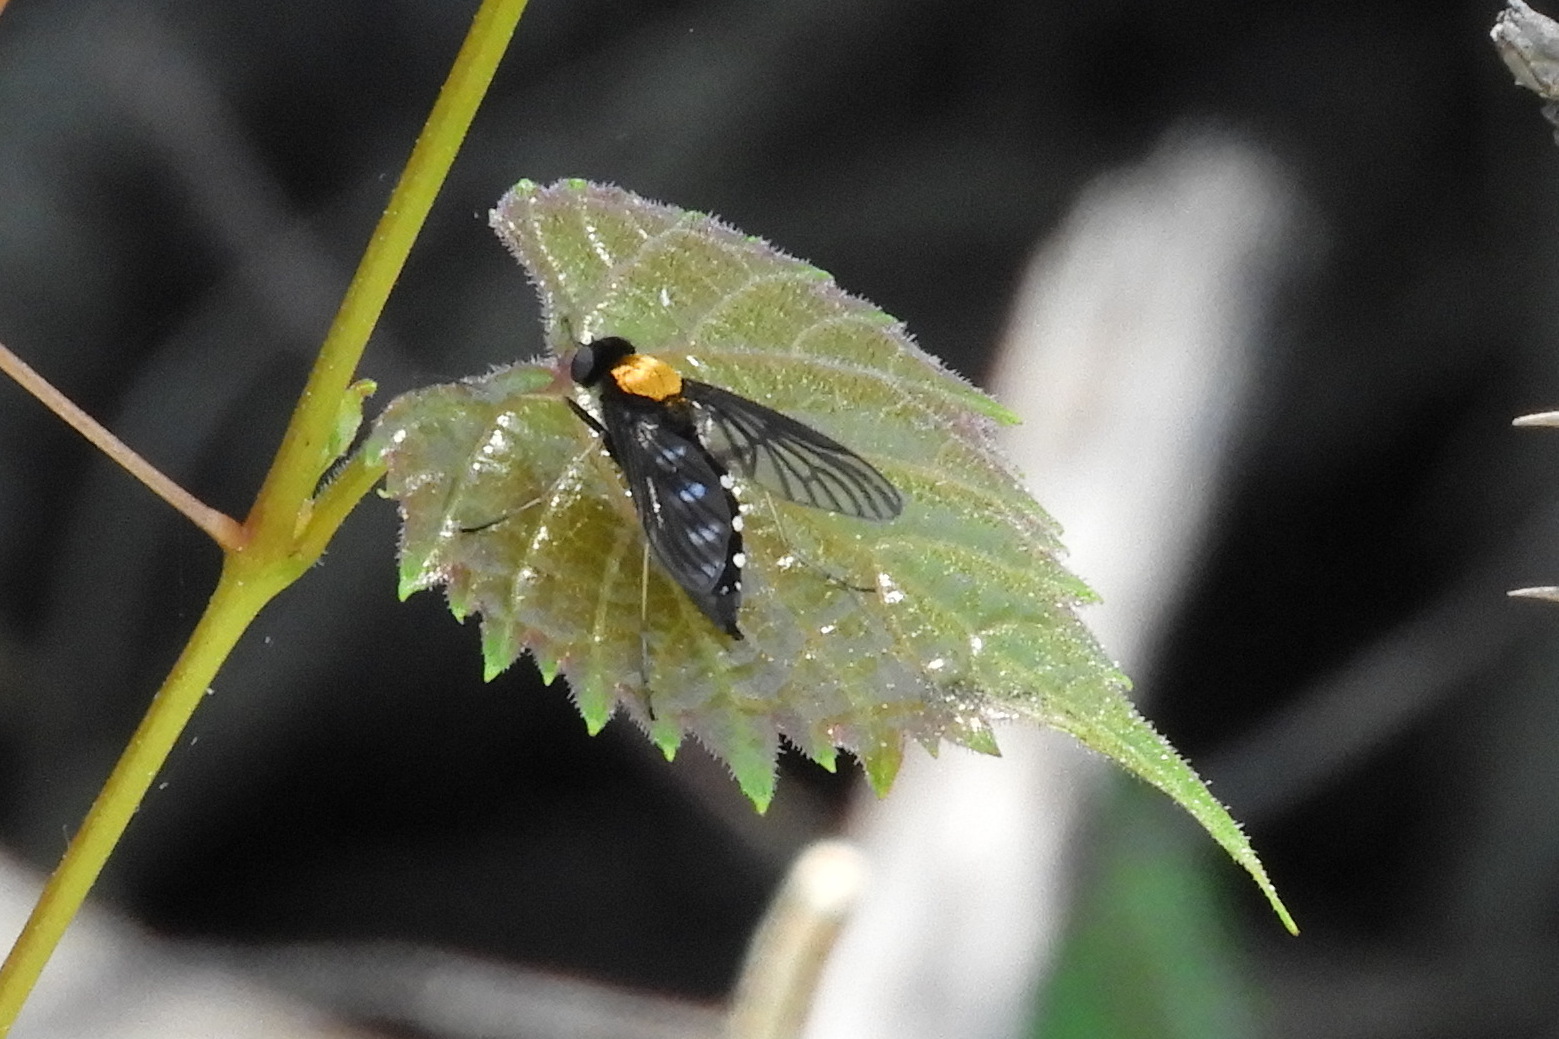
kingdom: Animalia
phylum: Arthropoda
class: Insecta
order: Diptera
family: Rhagionidae
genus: Chrysopilus
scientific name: Chrysopilus thoracicus
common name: Golden-backed snipe fly
